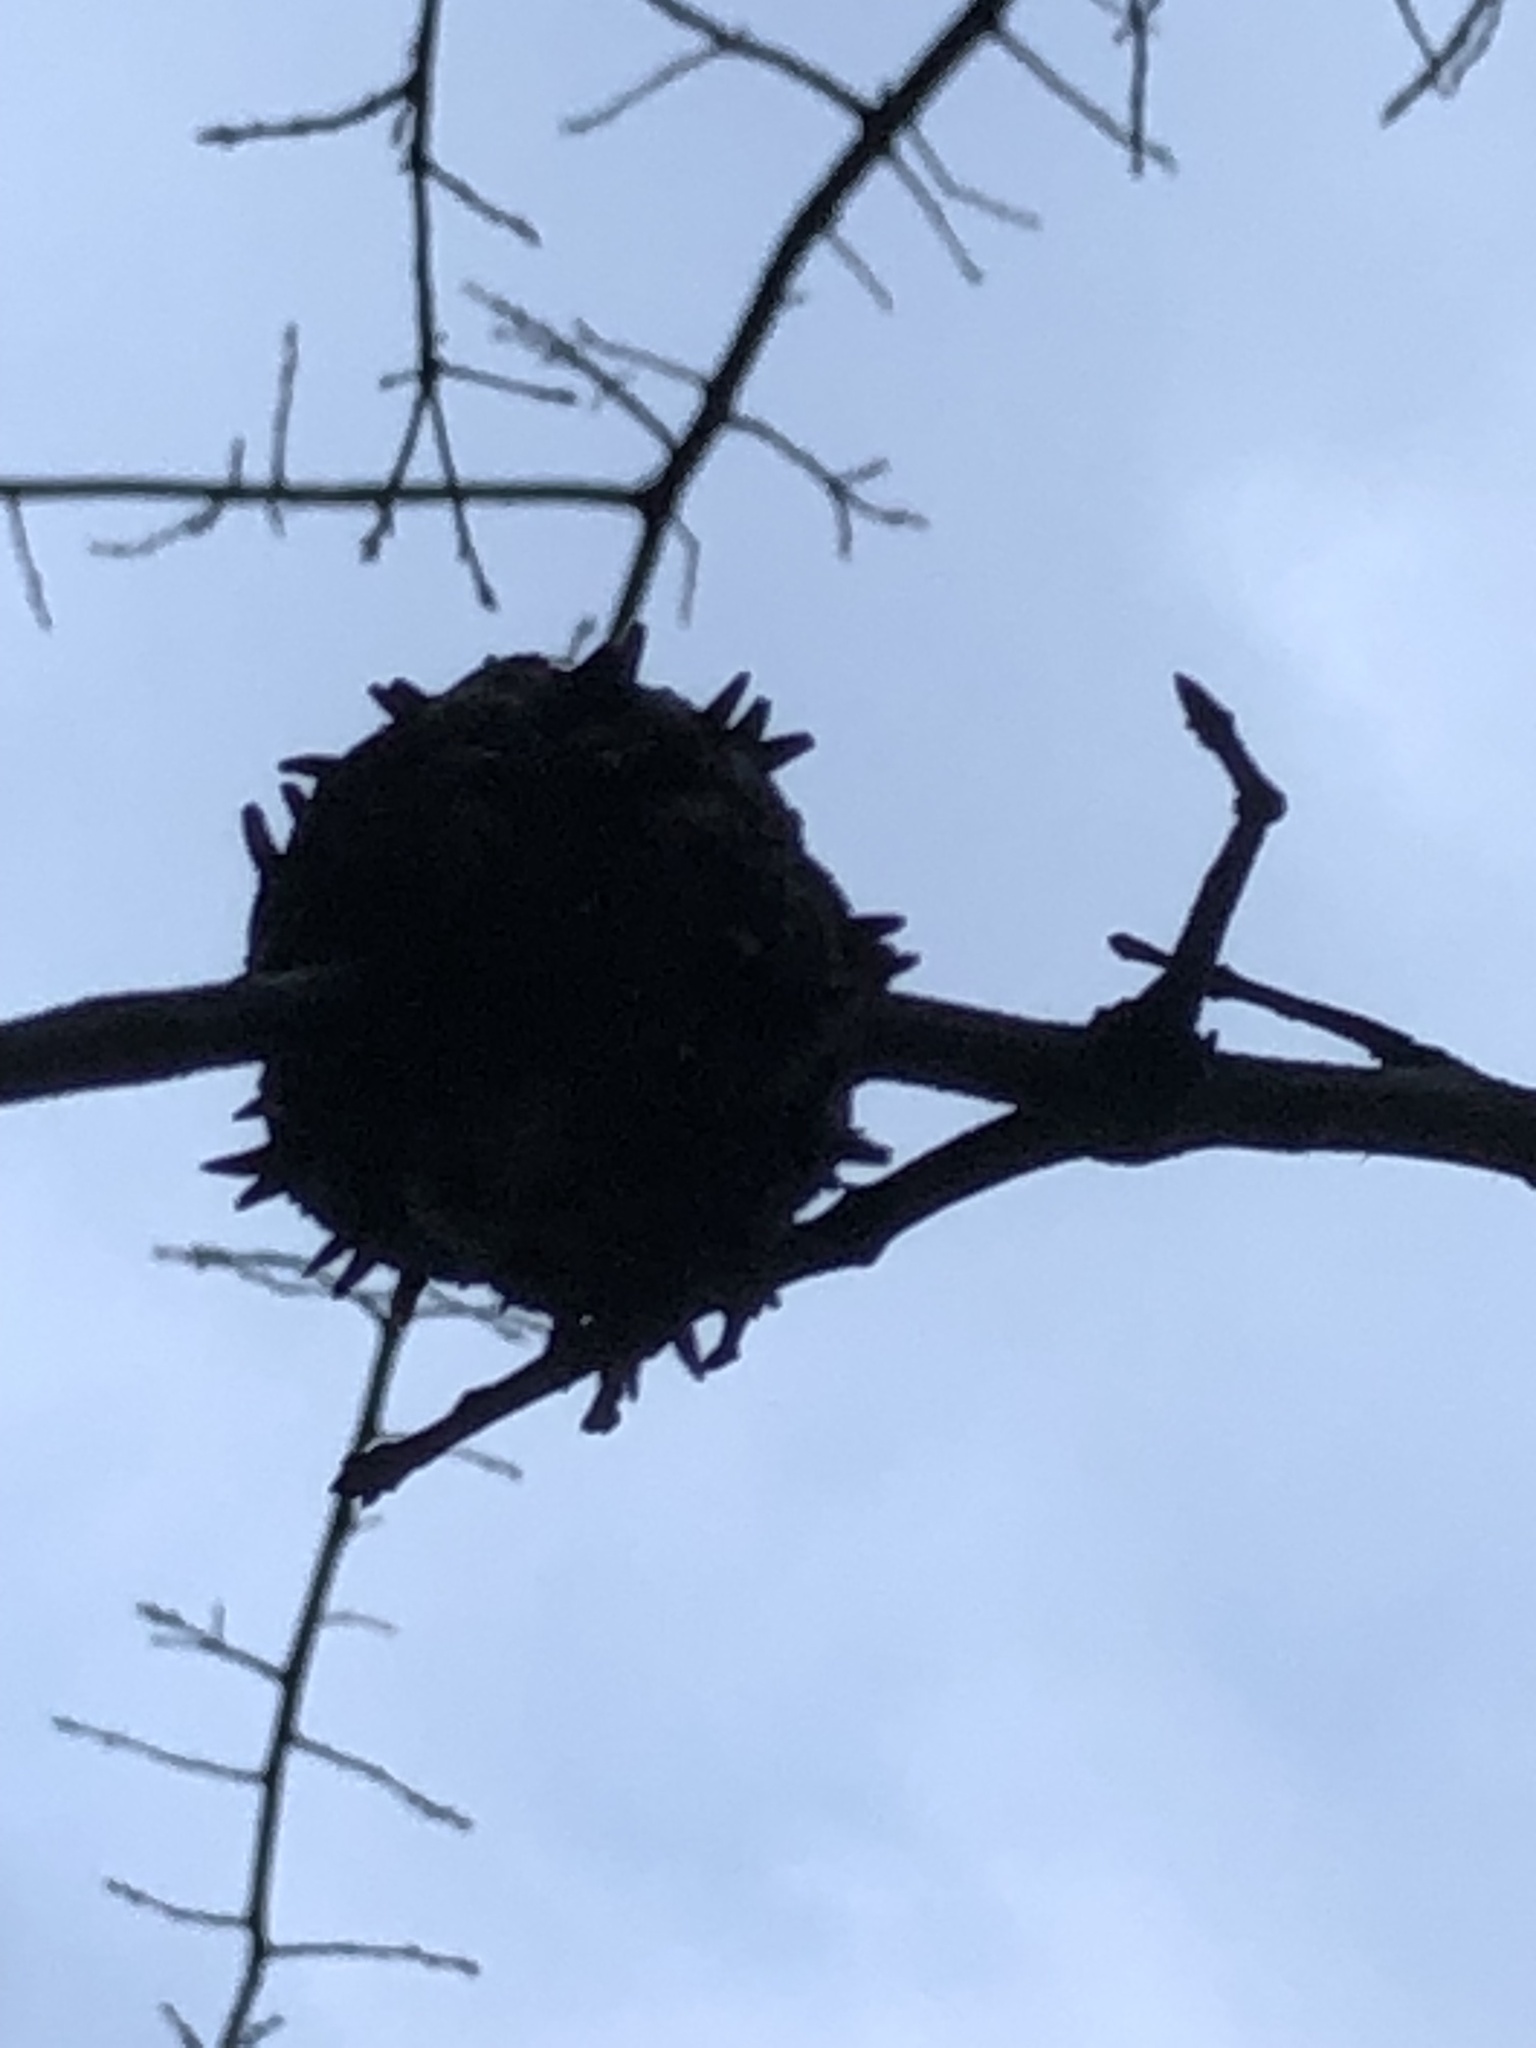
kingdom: Animalia
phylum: Arthropoda
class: Insecta
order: Hymenoptera
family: Cynipidae
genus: Callirhytis
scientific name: Callirhytis
